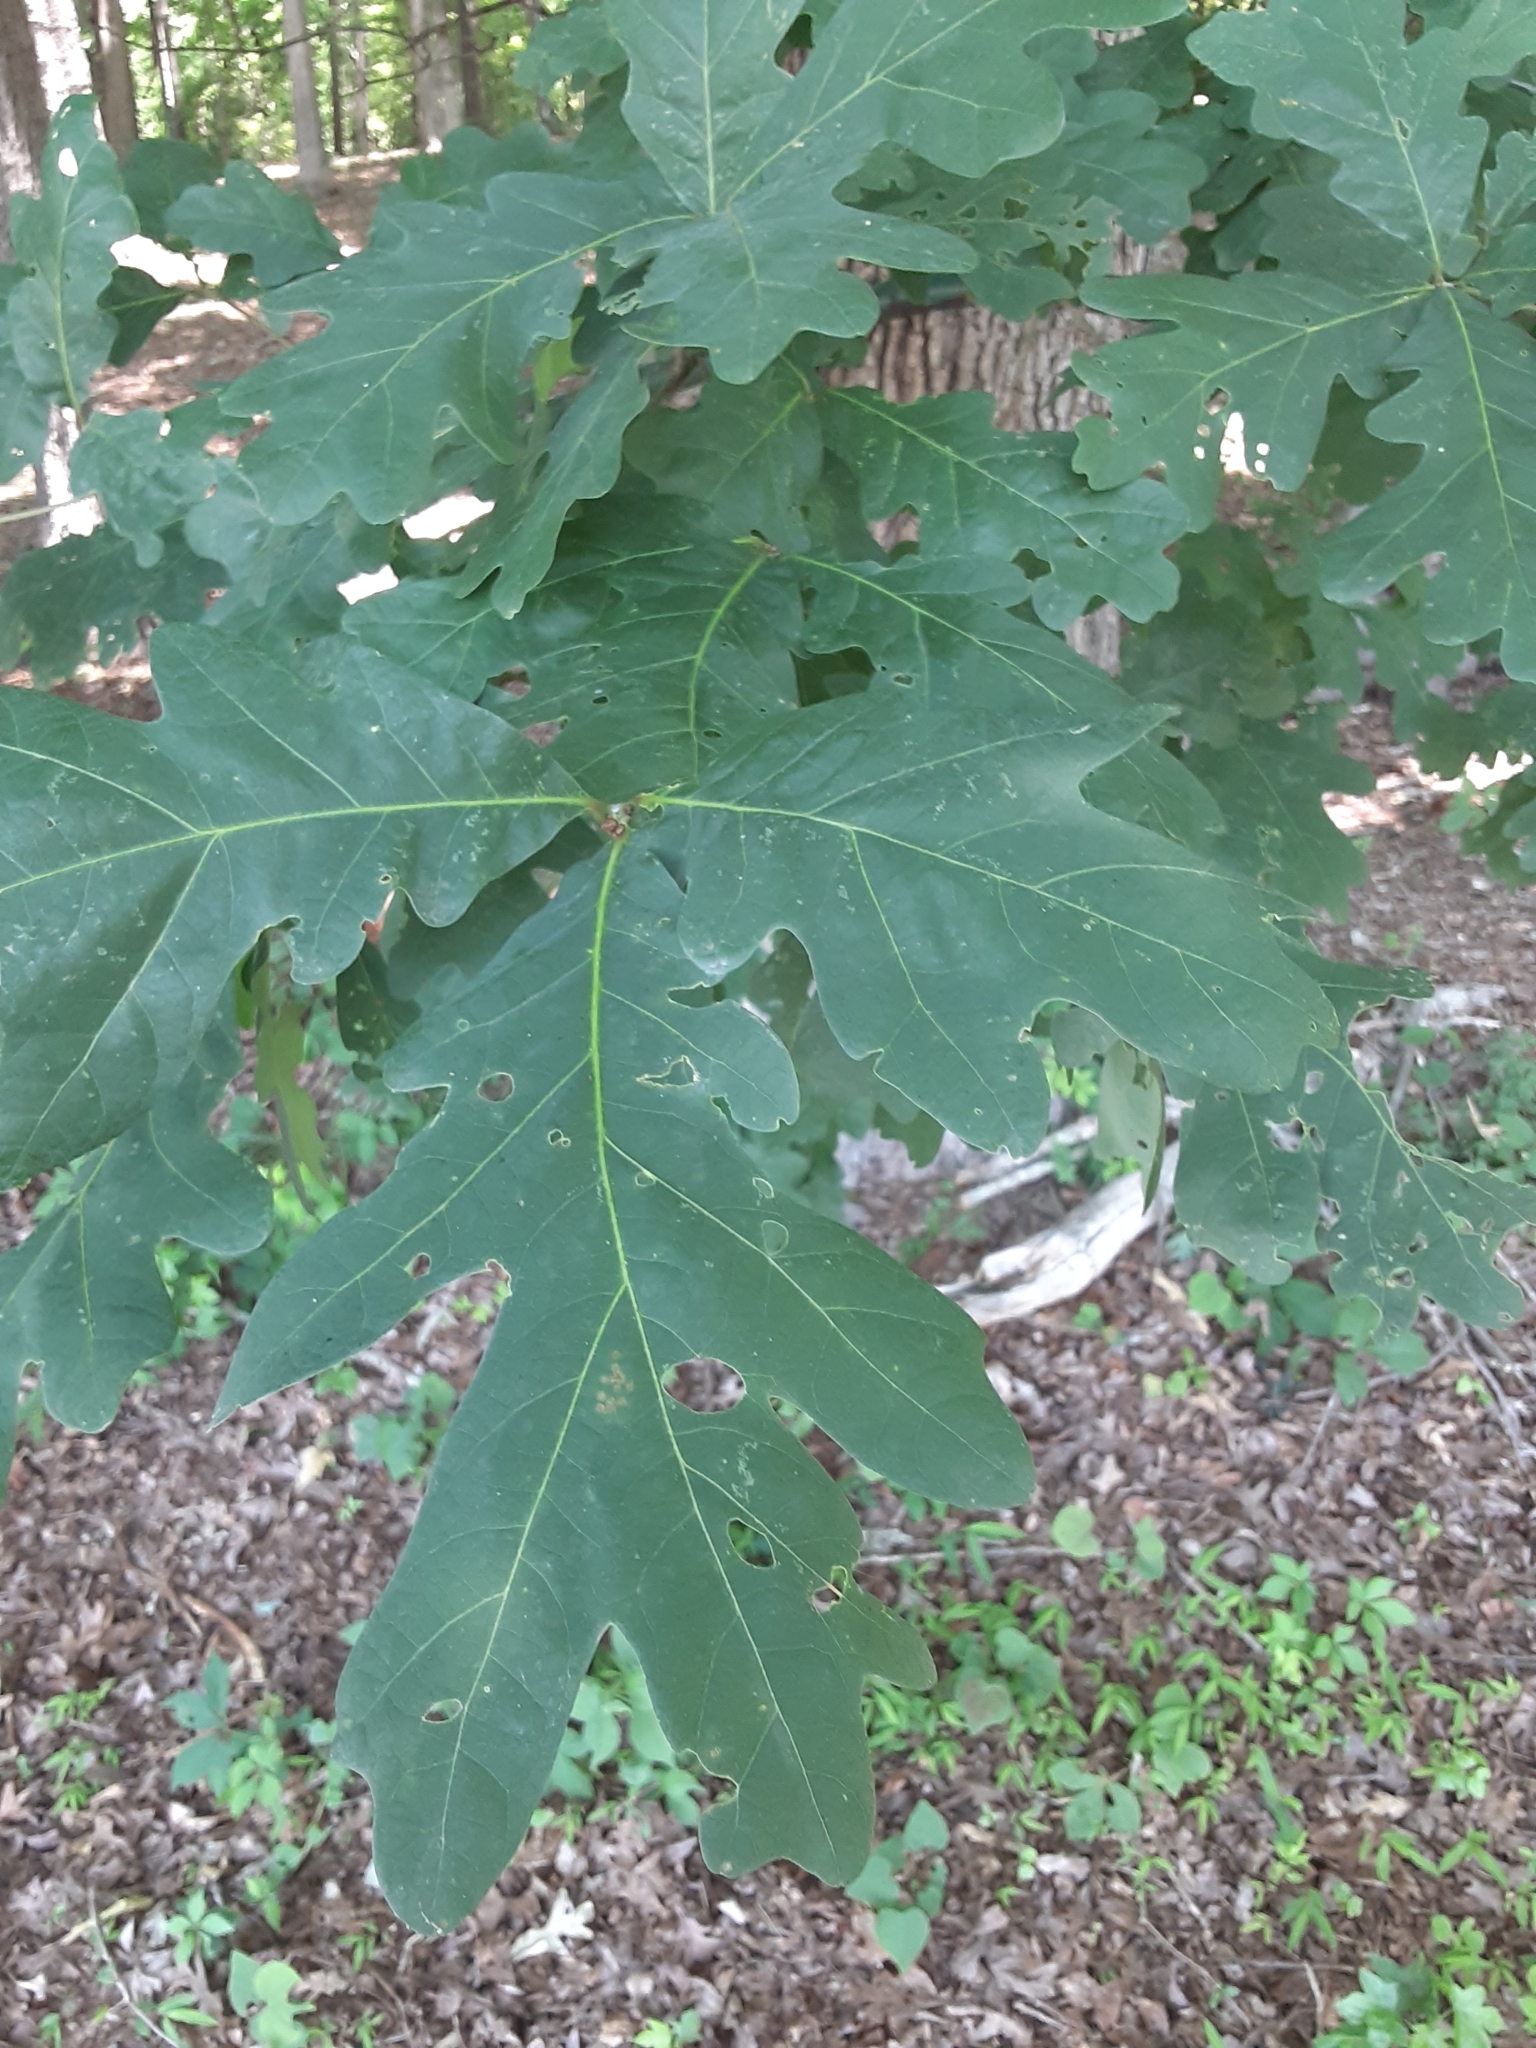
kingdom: Plantae
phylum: Tracheophyta
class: Magnoliopsida
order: Fagales
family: Fagaceae
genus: Quercus
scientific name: Quercus alba
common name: White oak
